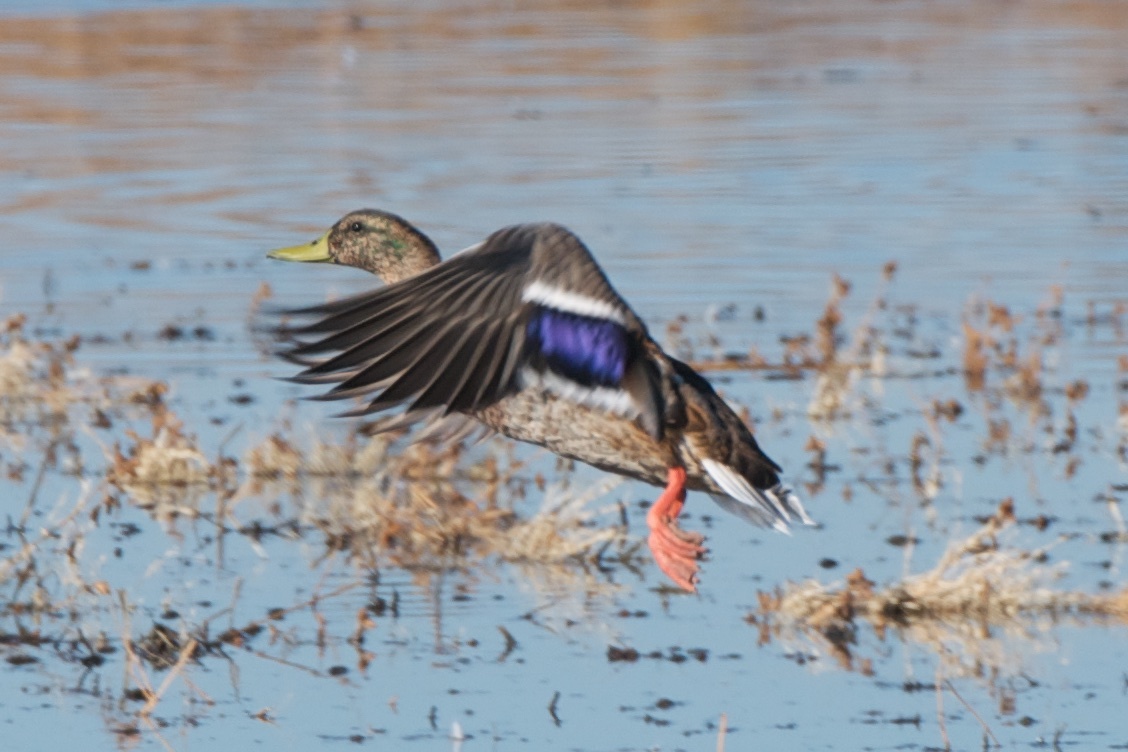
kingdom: Animalia
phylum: Chordata
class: Aves
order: Anseriformes
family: Anatidae
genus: Anas
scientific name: Anas platyrhynchos
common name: Mallard
